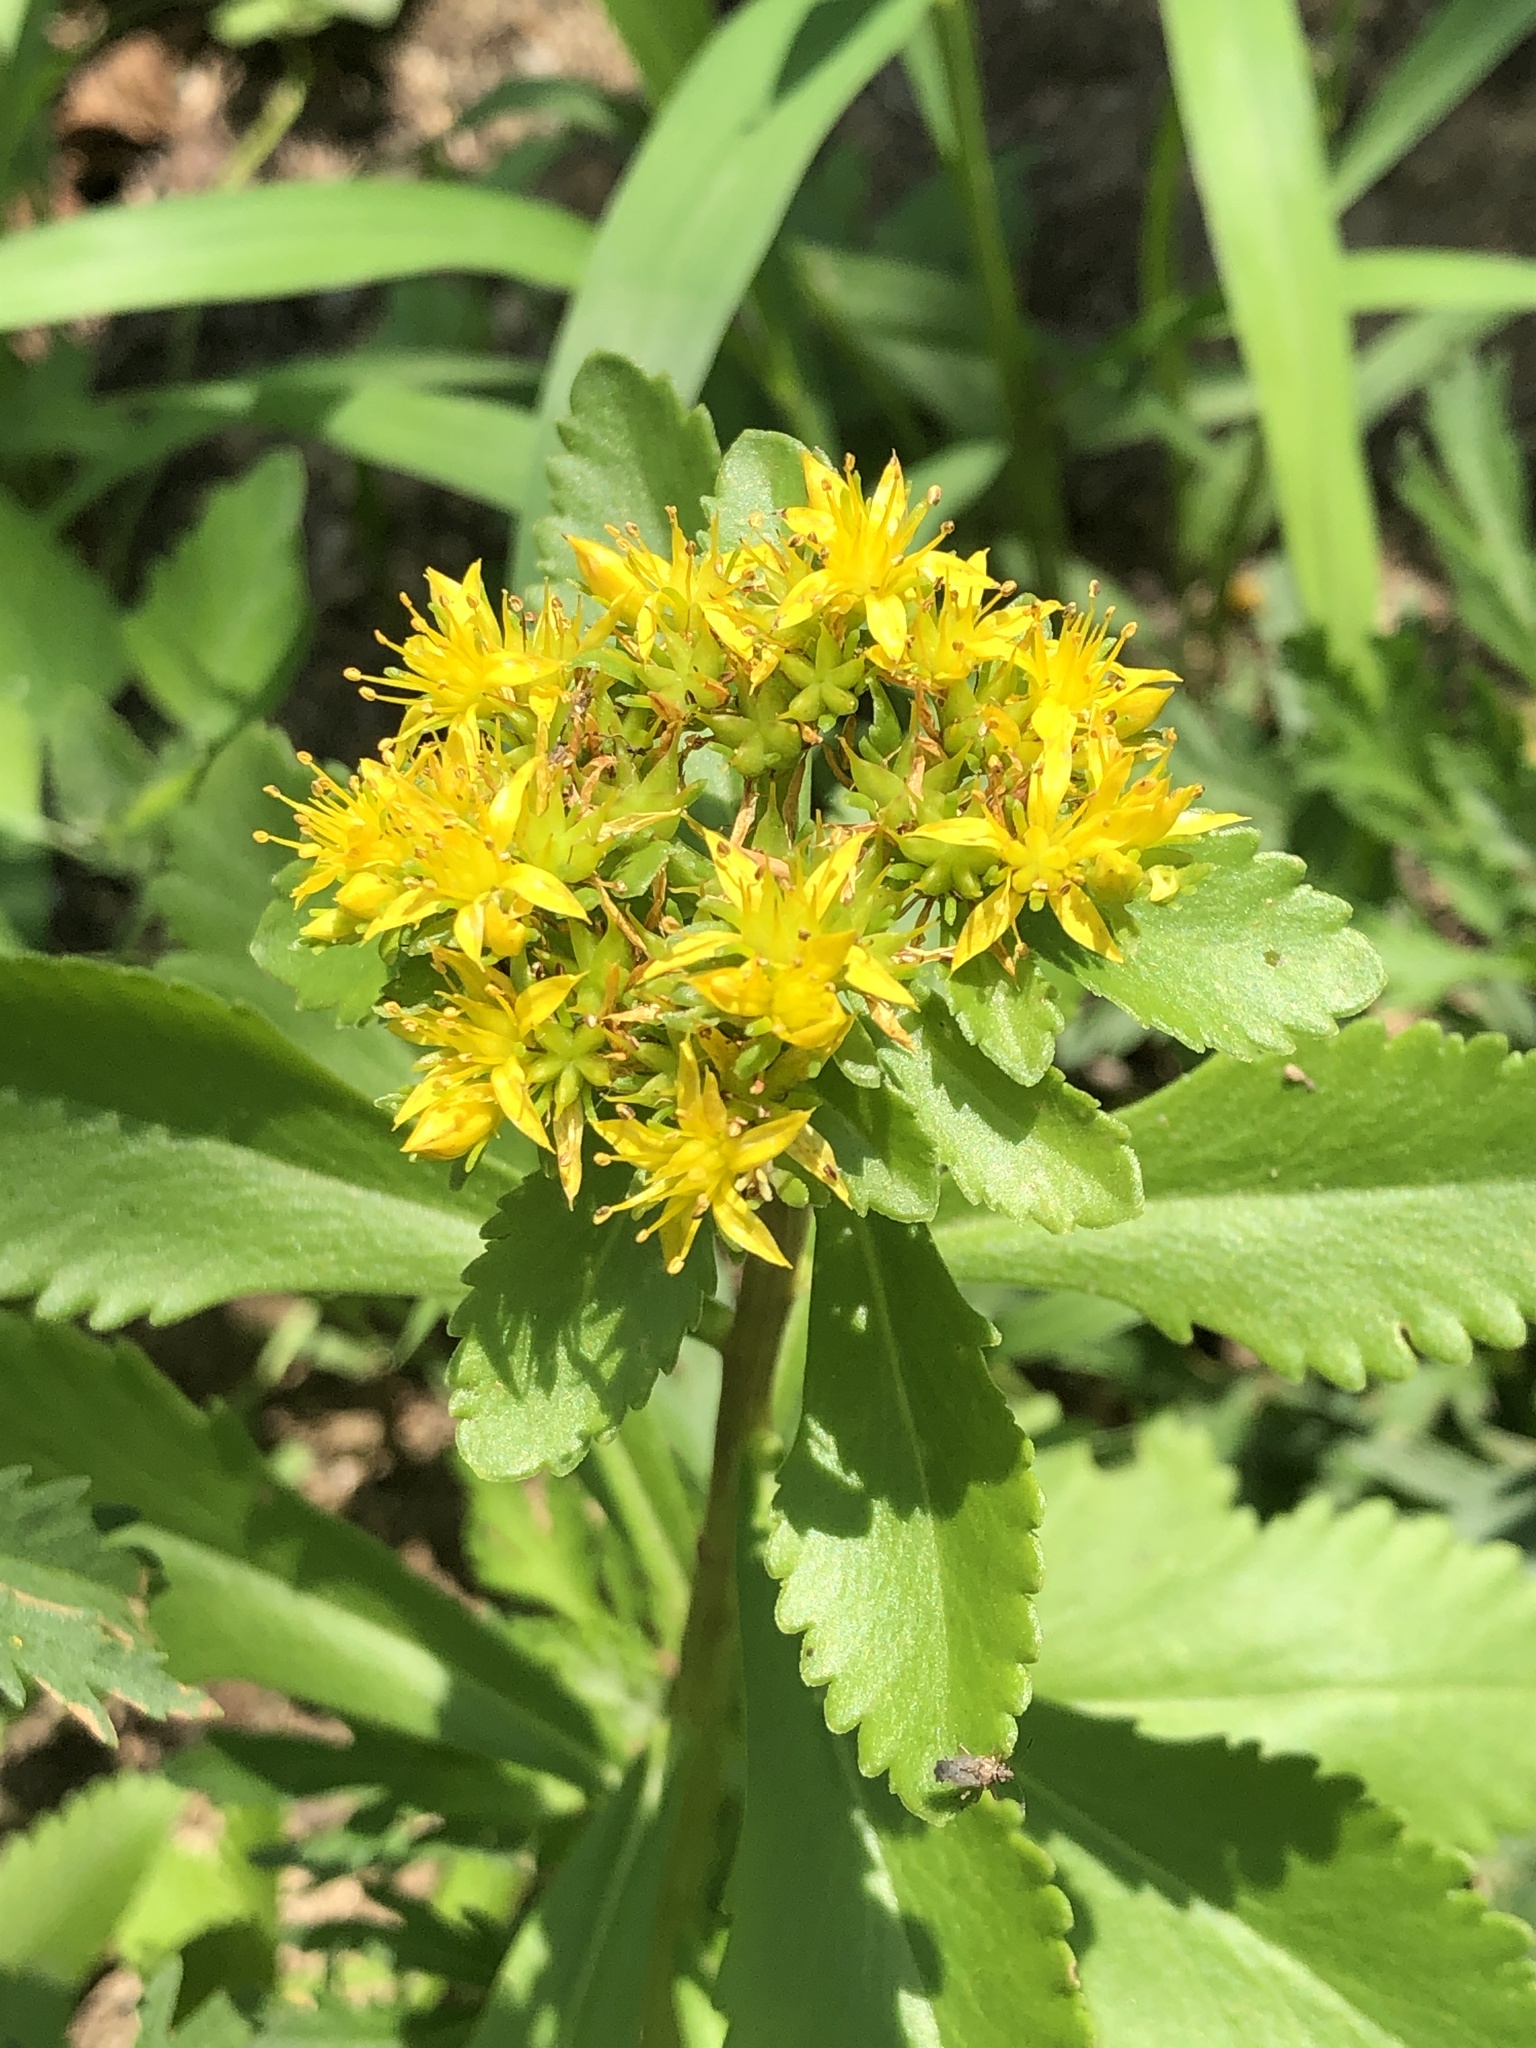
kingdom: Plantae
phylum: Tracheophyta
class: Magnoliopsida
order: Saxifragales
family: Crassulaceae
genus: Phedimus
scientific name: Phedimus aizoon
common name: Orpin aizoon
